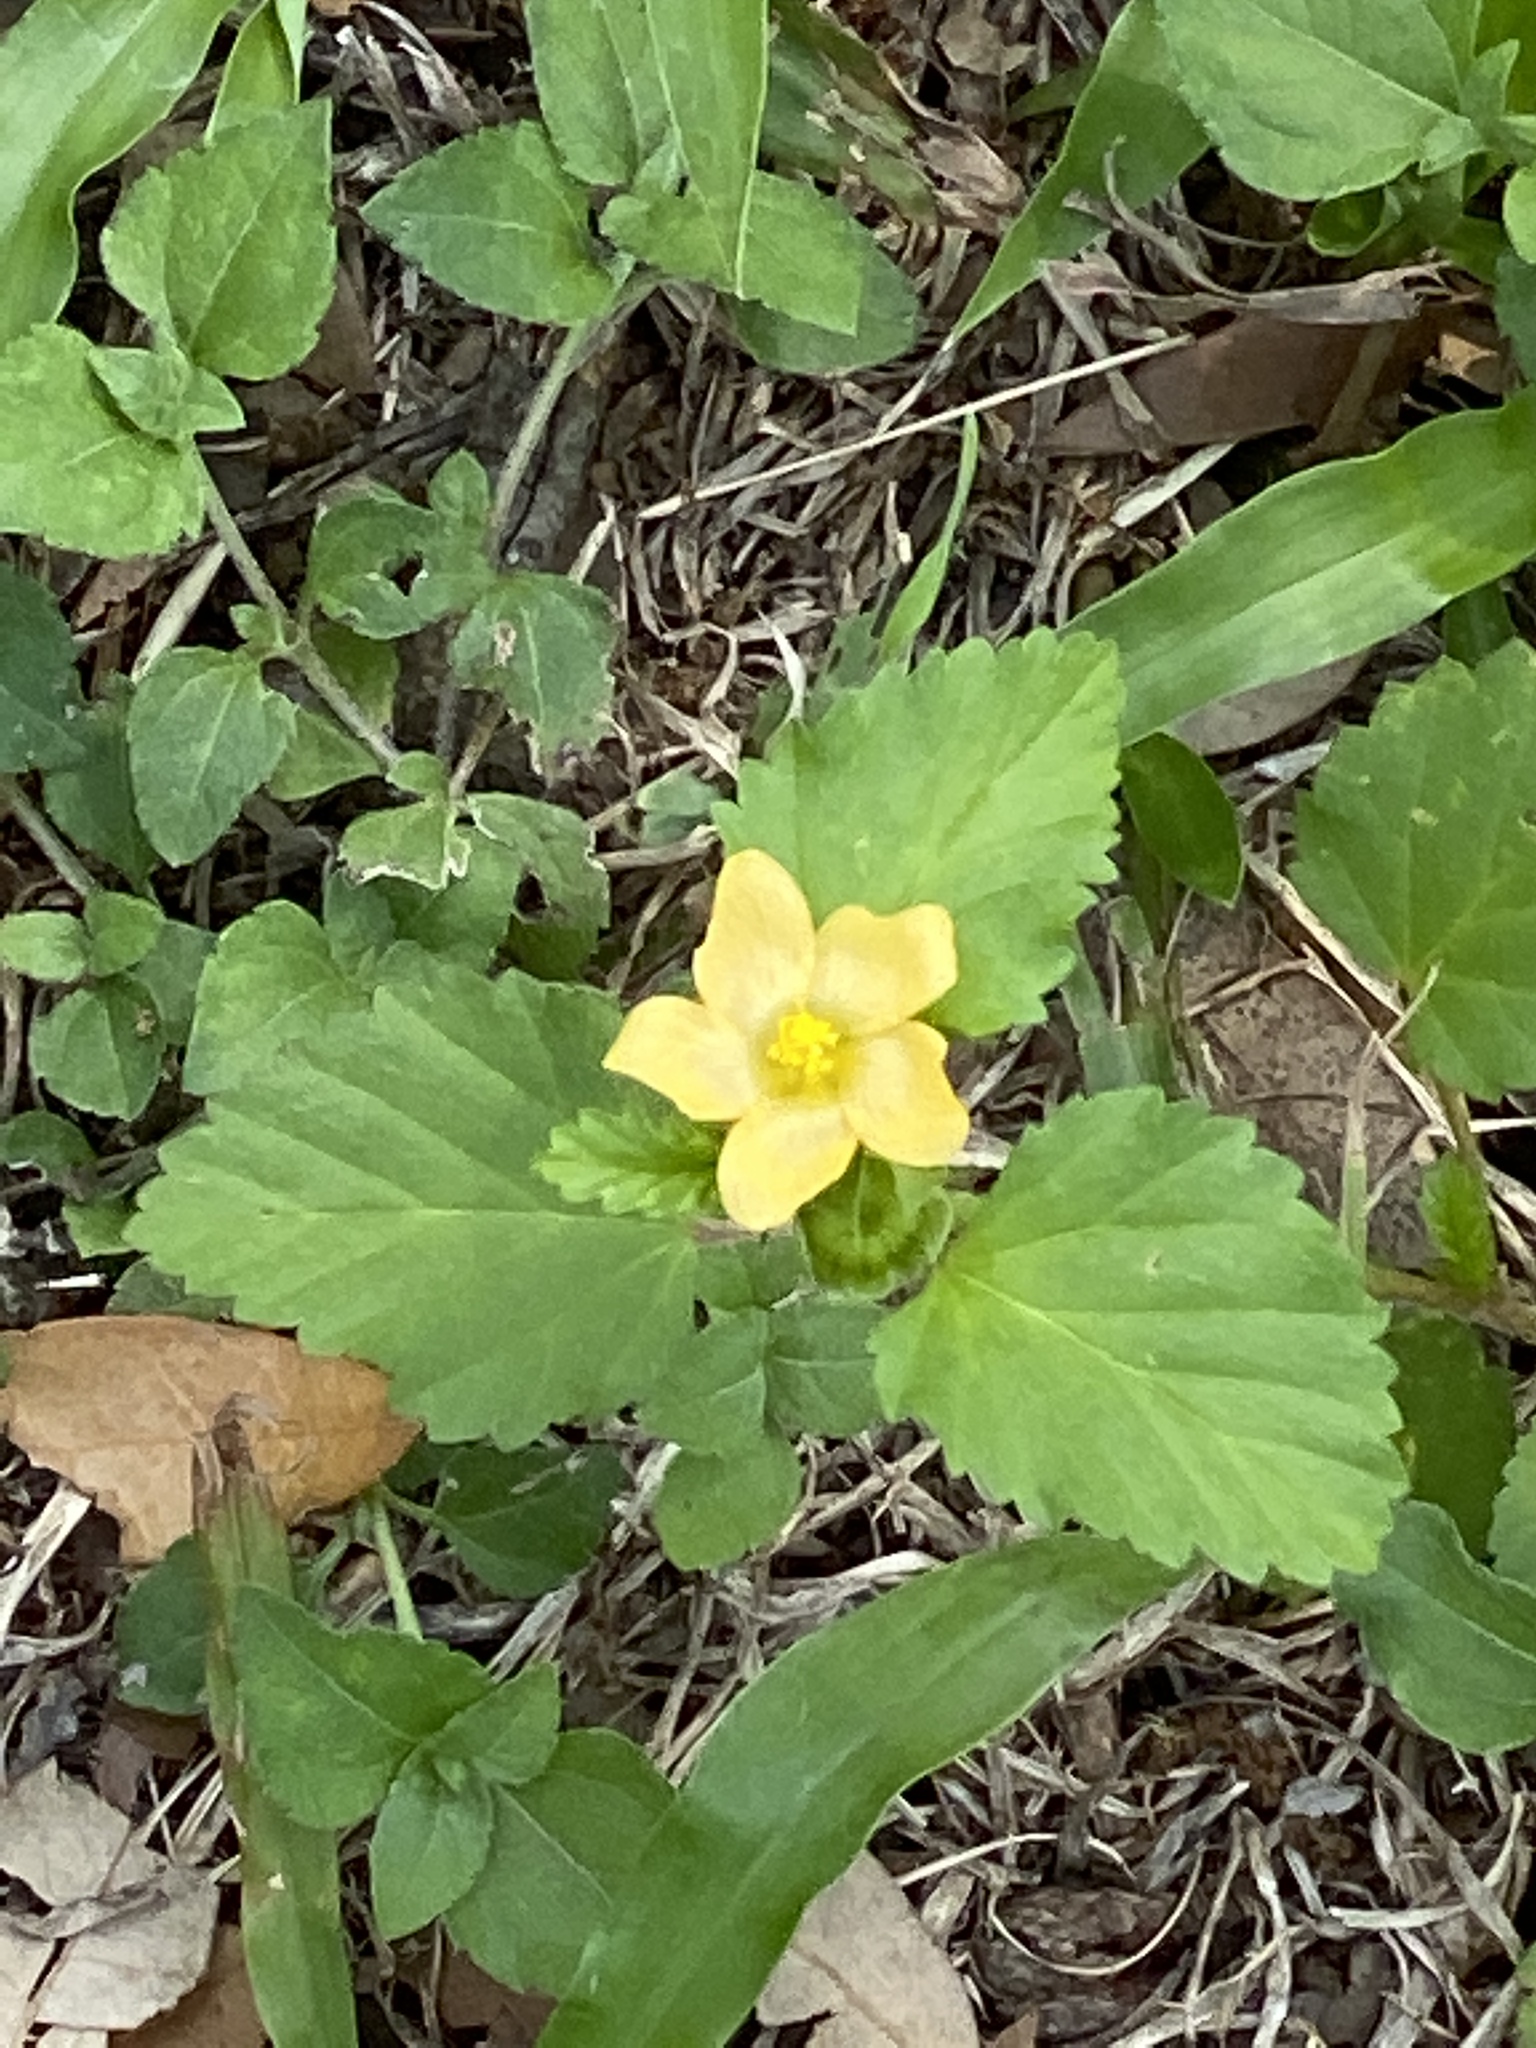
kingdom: Plantae
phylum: Tracheophyta
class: Magnoliopsida
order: Malvales
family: Malvaceae
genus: Malvastrum
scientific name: Malvastrum coromandelianum
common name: Threelobe false mallow
